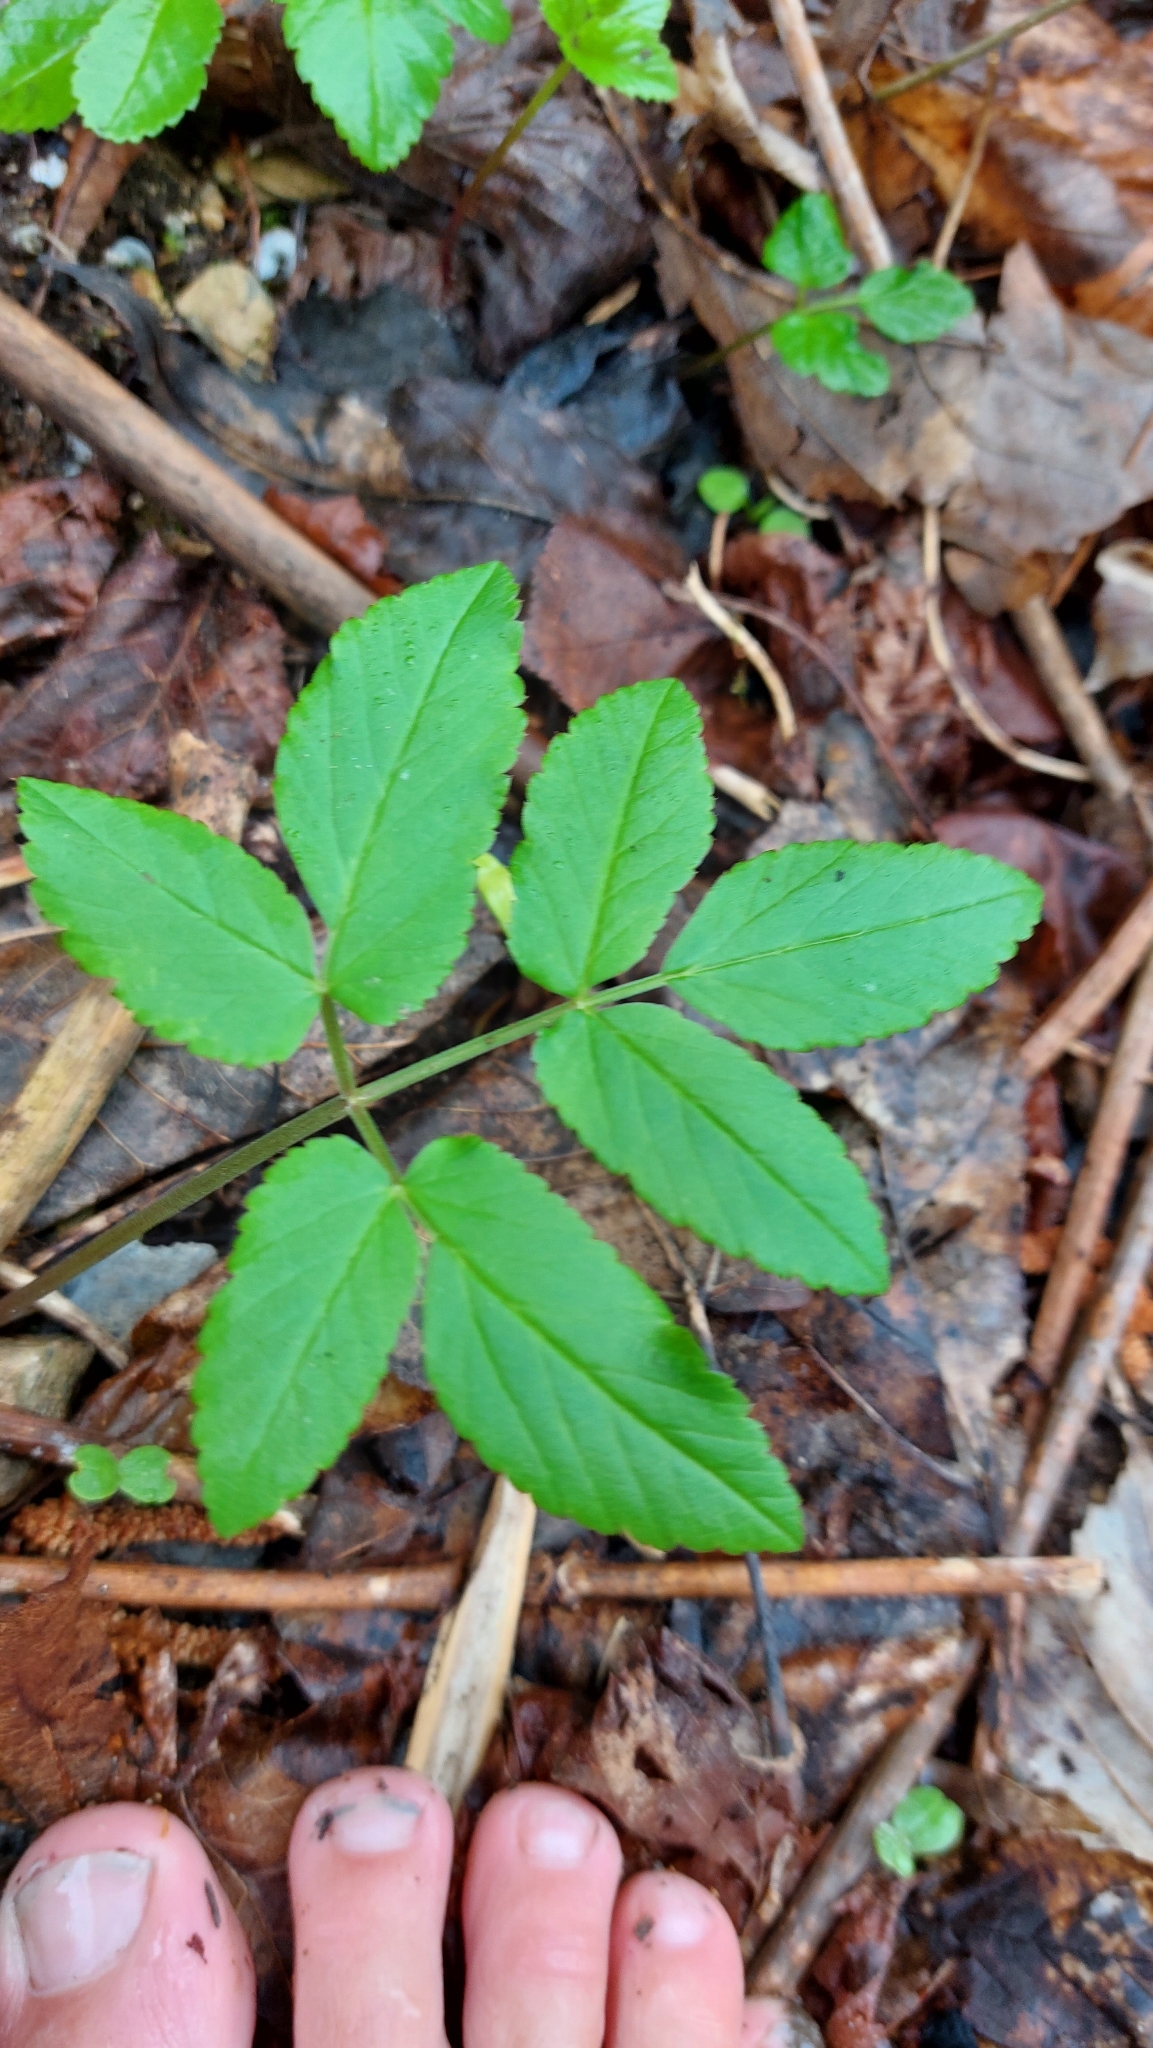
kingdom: Plantae
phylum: Tracheophyta
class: Magnoliopsida
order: Apiales
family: Apiaceae
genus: Aegopodium
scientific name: Aegopodium podagraria
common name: Ground-elder
